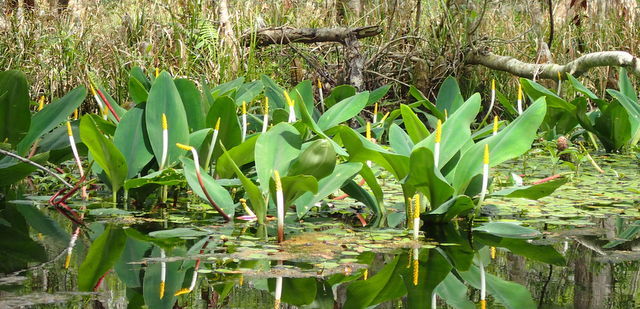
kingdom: Plantae
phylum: Tracheophyta
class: Liliopsida
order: Alismatales
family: Araceae
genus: Orontium
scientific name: Orontium aquaticum
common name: Golden-club
